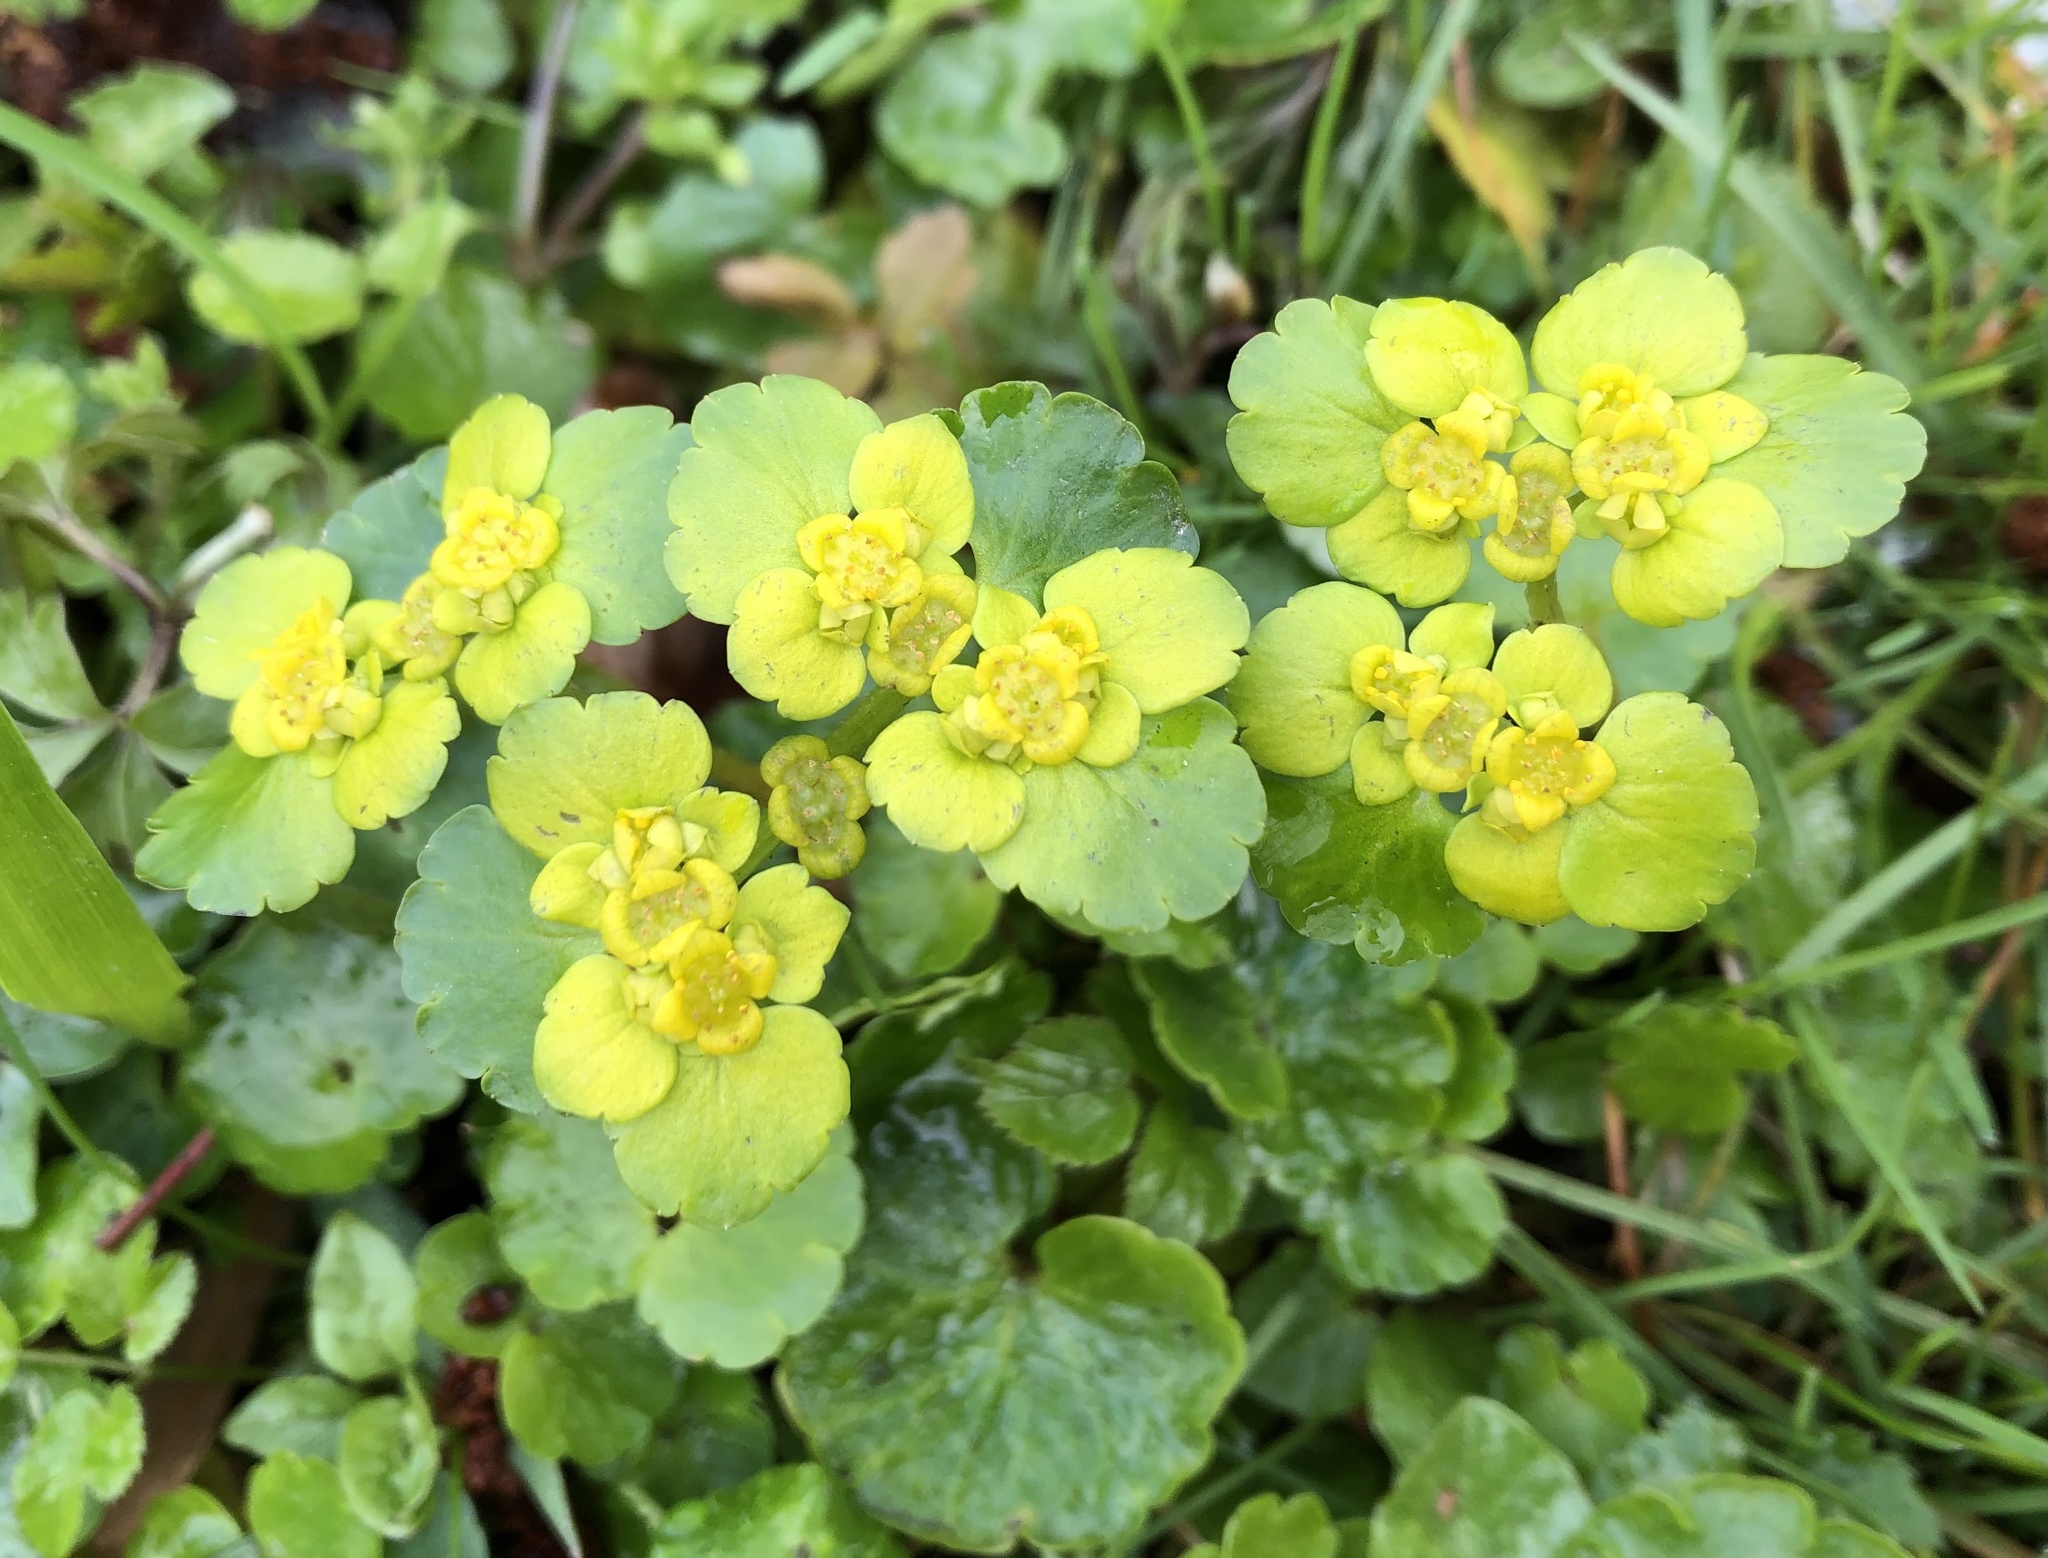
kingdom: Plantae
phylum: Tracheophyta
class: Magnoliopsida
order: Saxifragales
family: Saxifragaceae
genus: Chrysosplenium
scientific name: Chrysosplenium alternifolium
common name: Alternate-leaved golden-saxifrage
